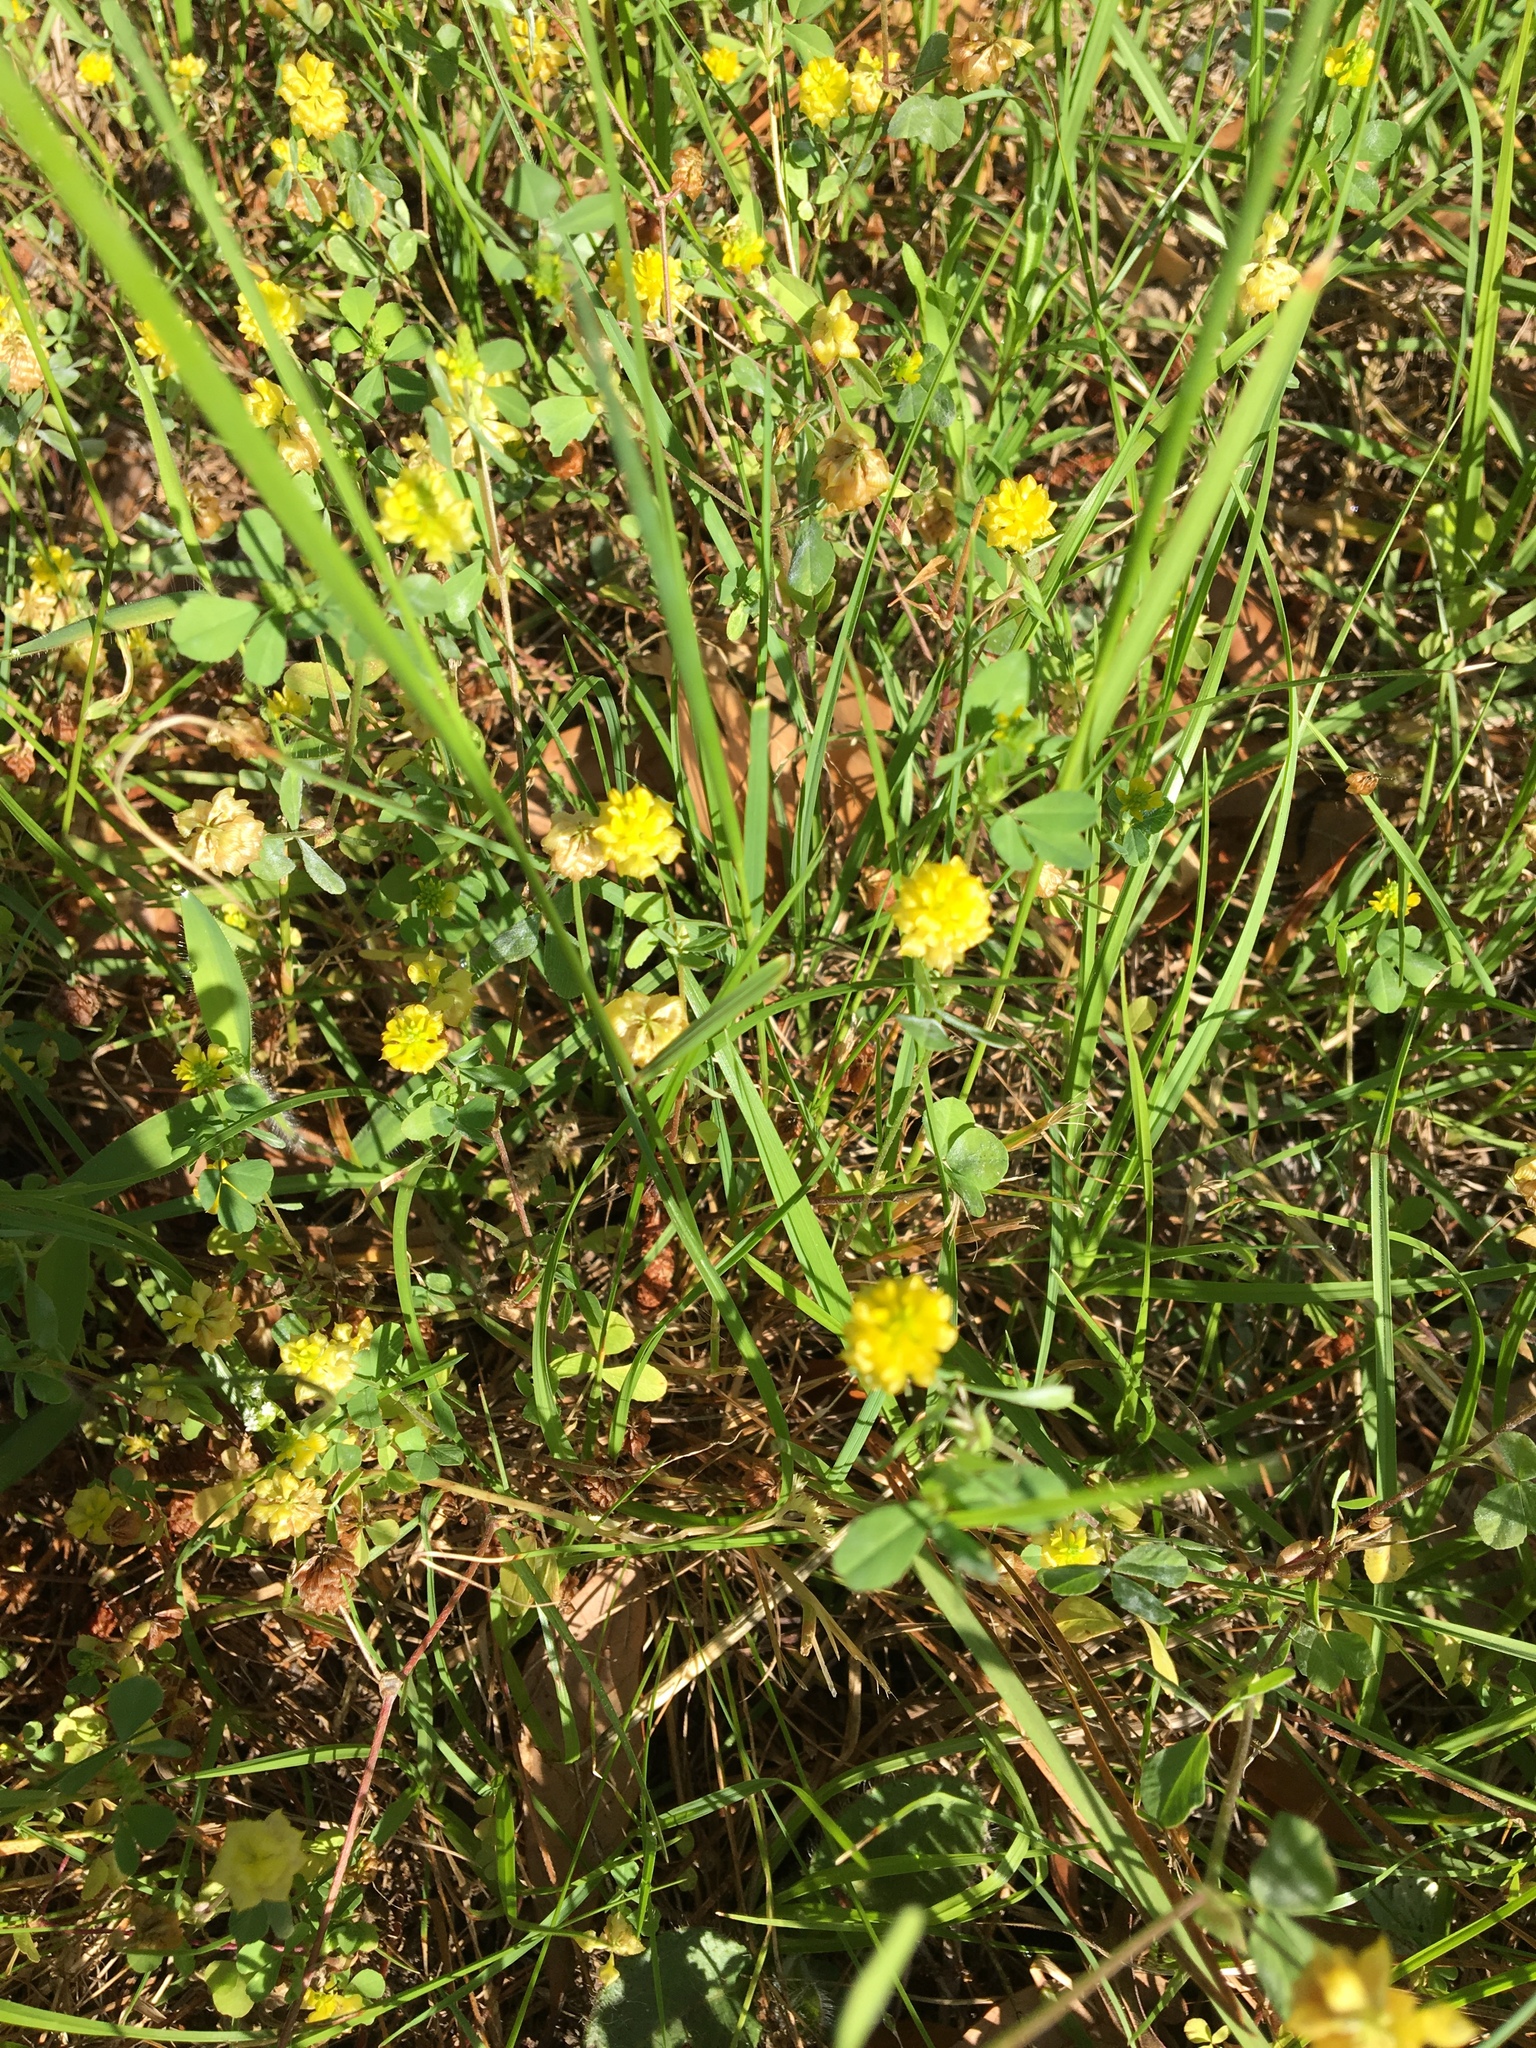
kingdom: Plantae
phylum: Tracheophyta
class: Magnoliopsida
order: Fabales
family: Fabaceae
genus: Trifolium
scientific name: Trifolium campestre
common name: Field clover
